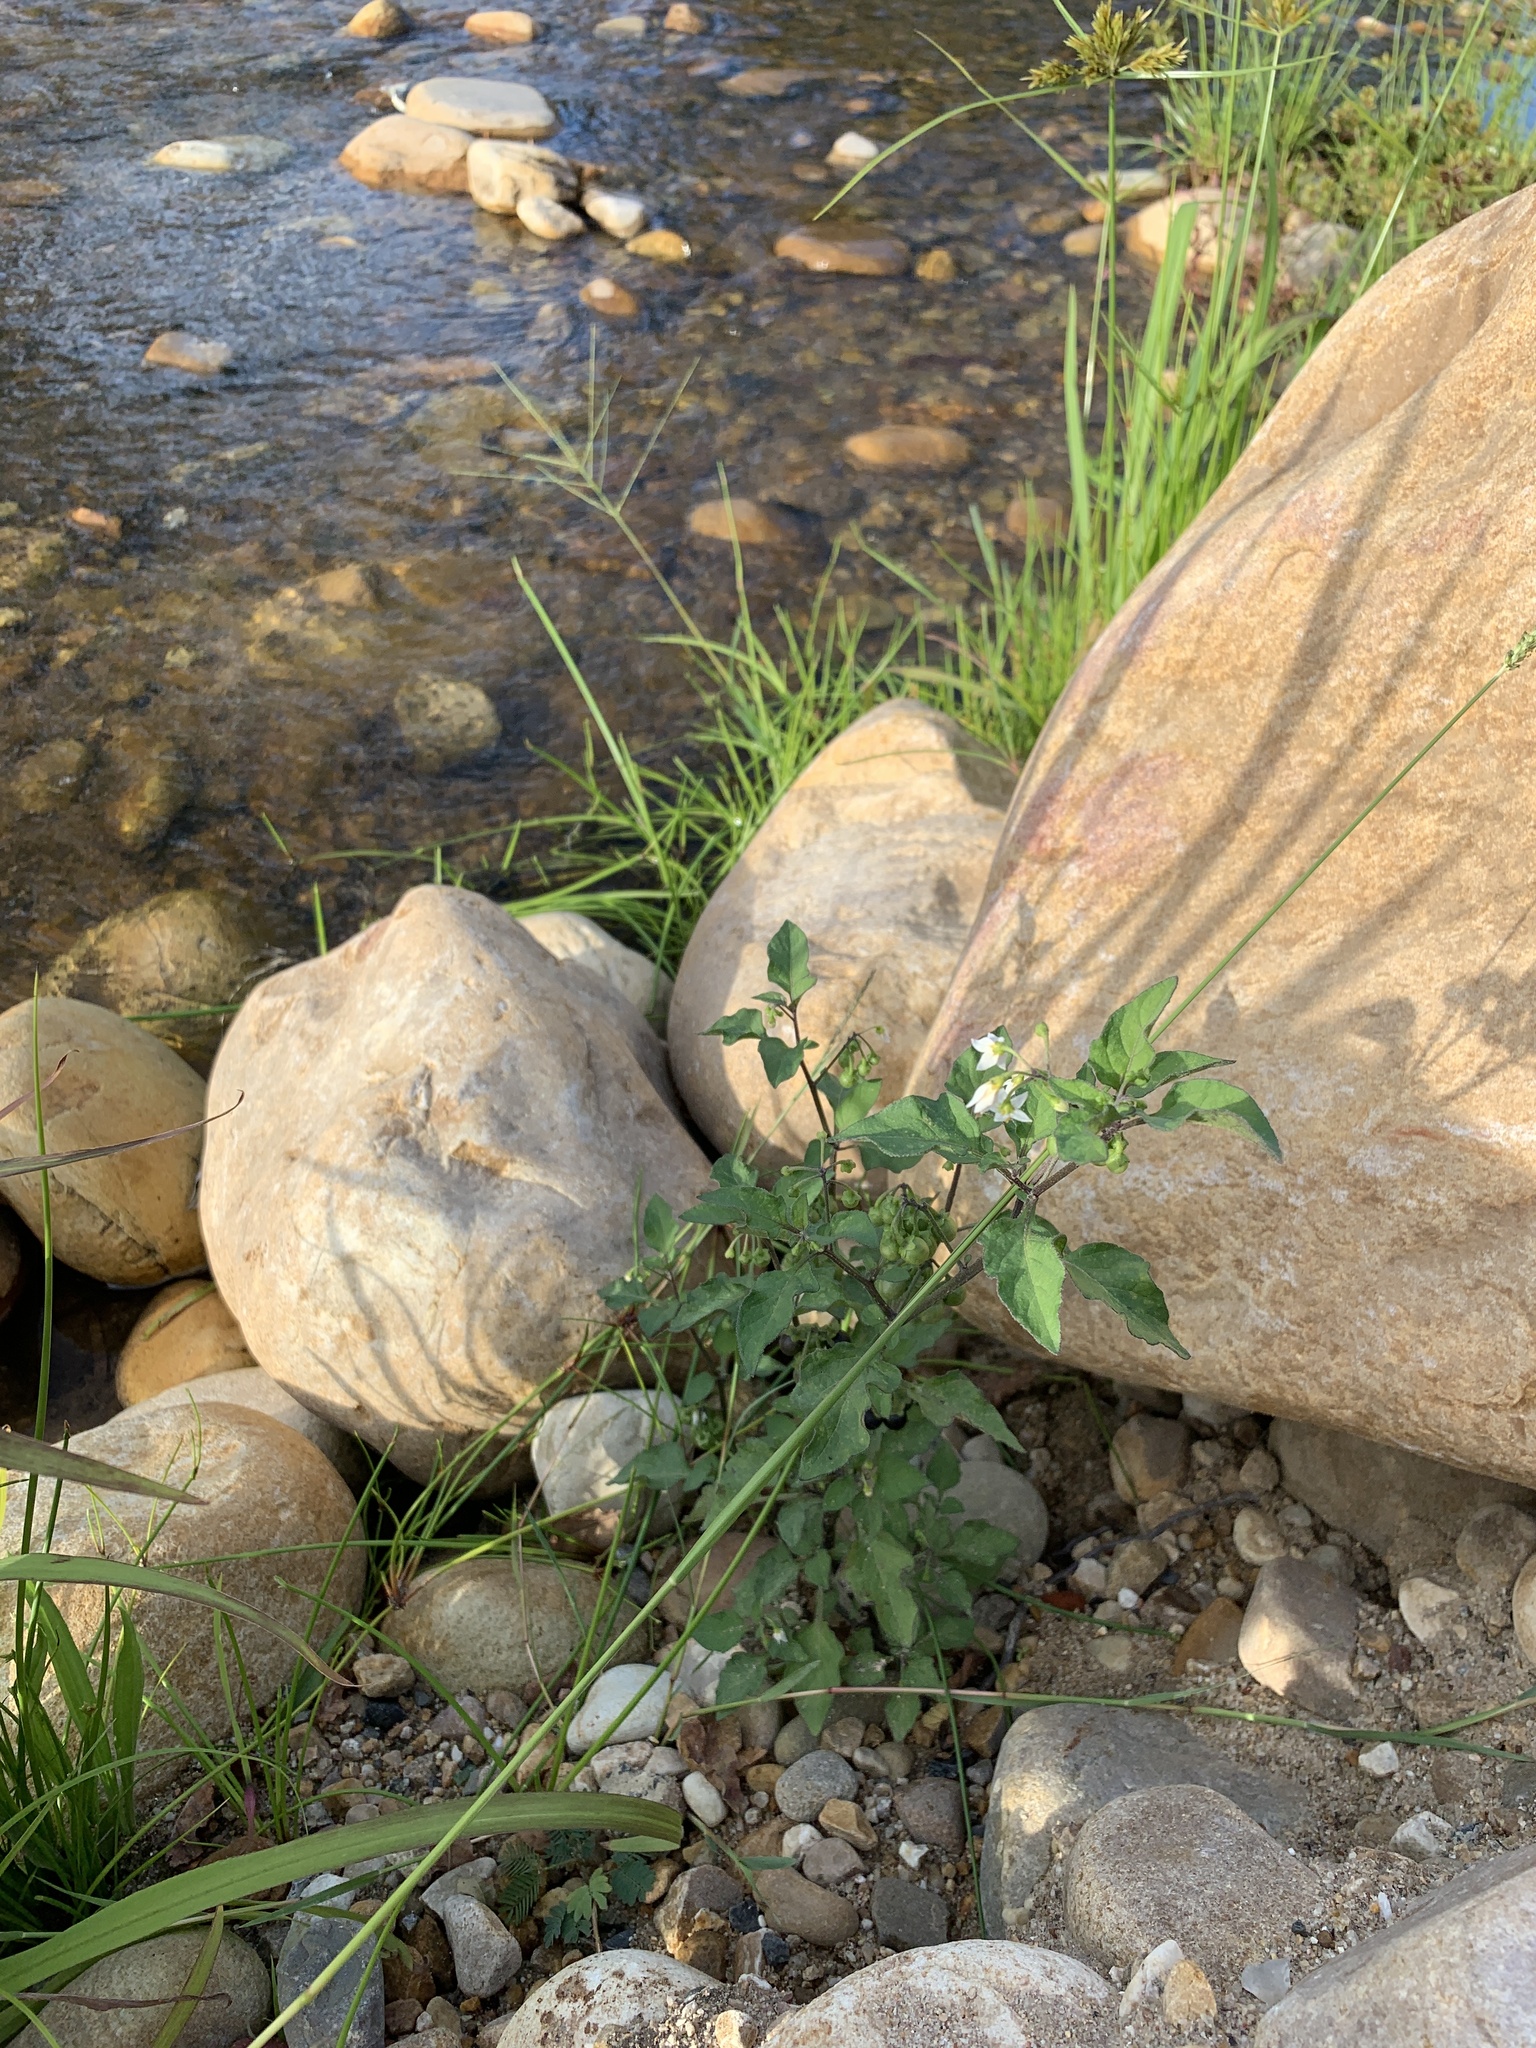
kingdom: Plantae
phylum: Tracheophyta
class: Magnoliopsida
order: Solanales
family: Solanaceae
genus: Solanum
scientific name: Solanum nigrum
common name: Black nightshade
